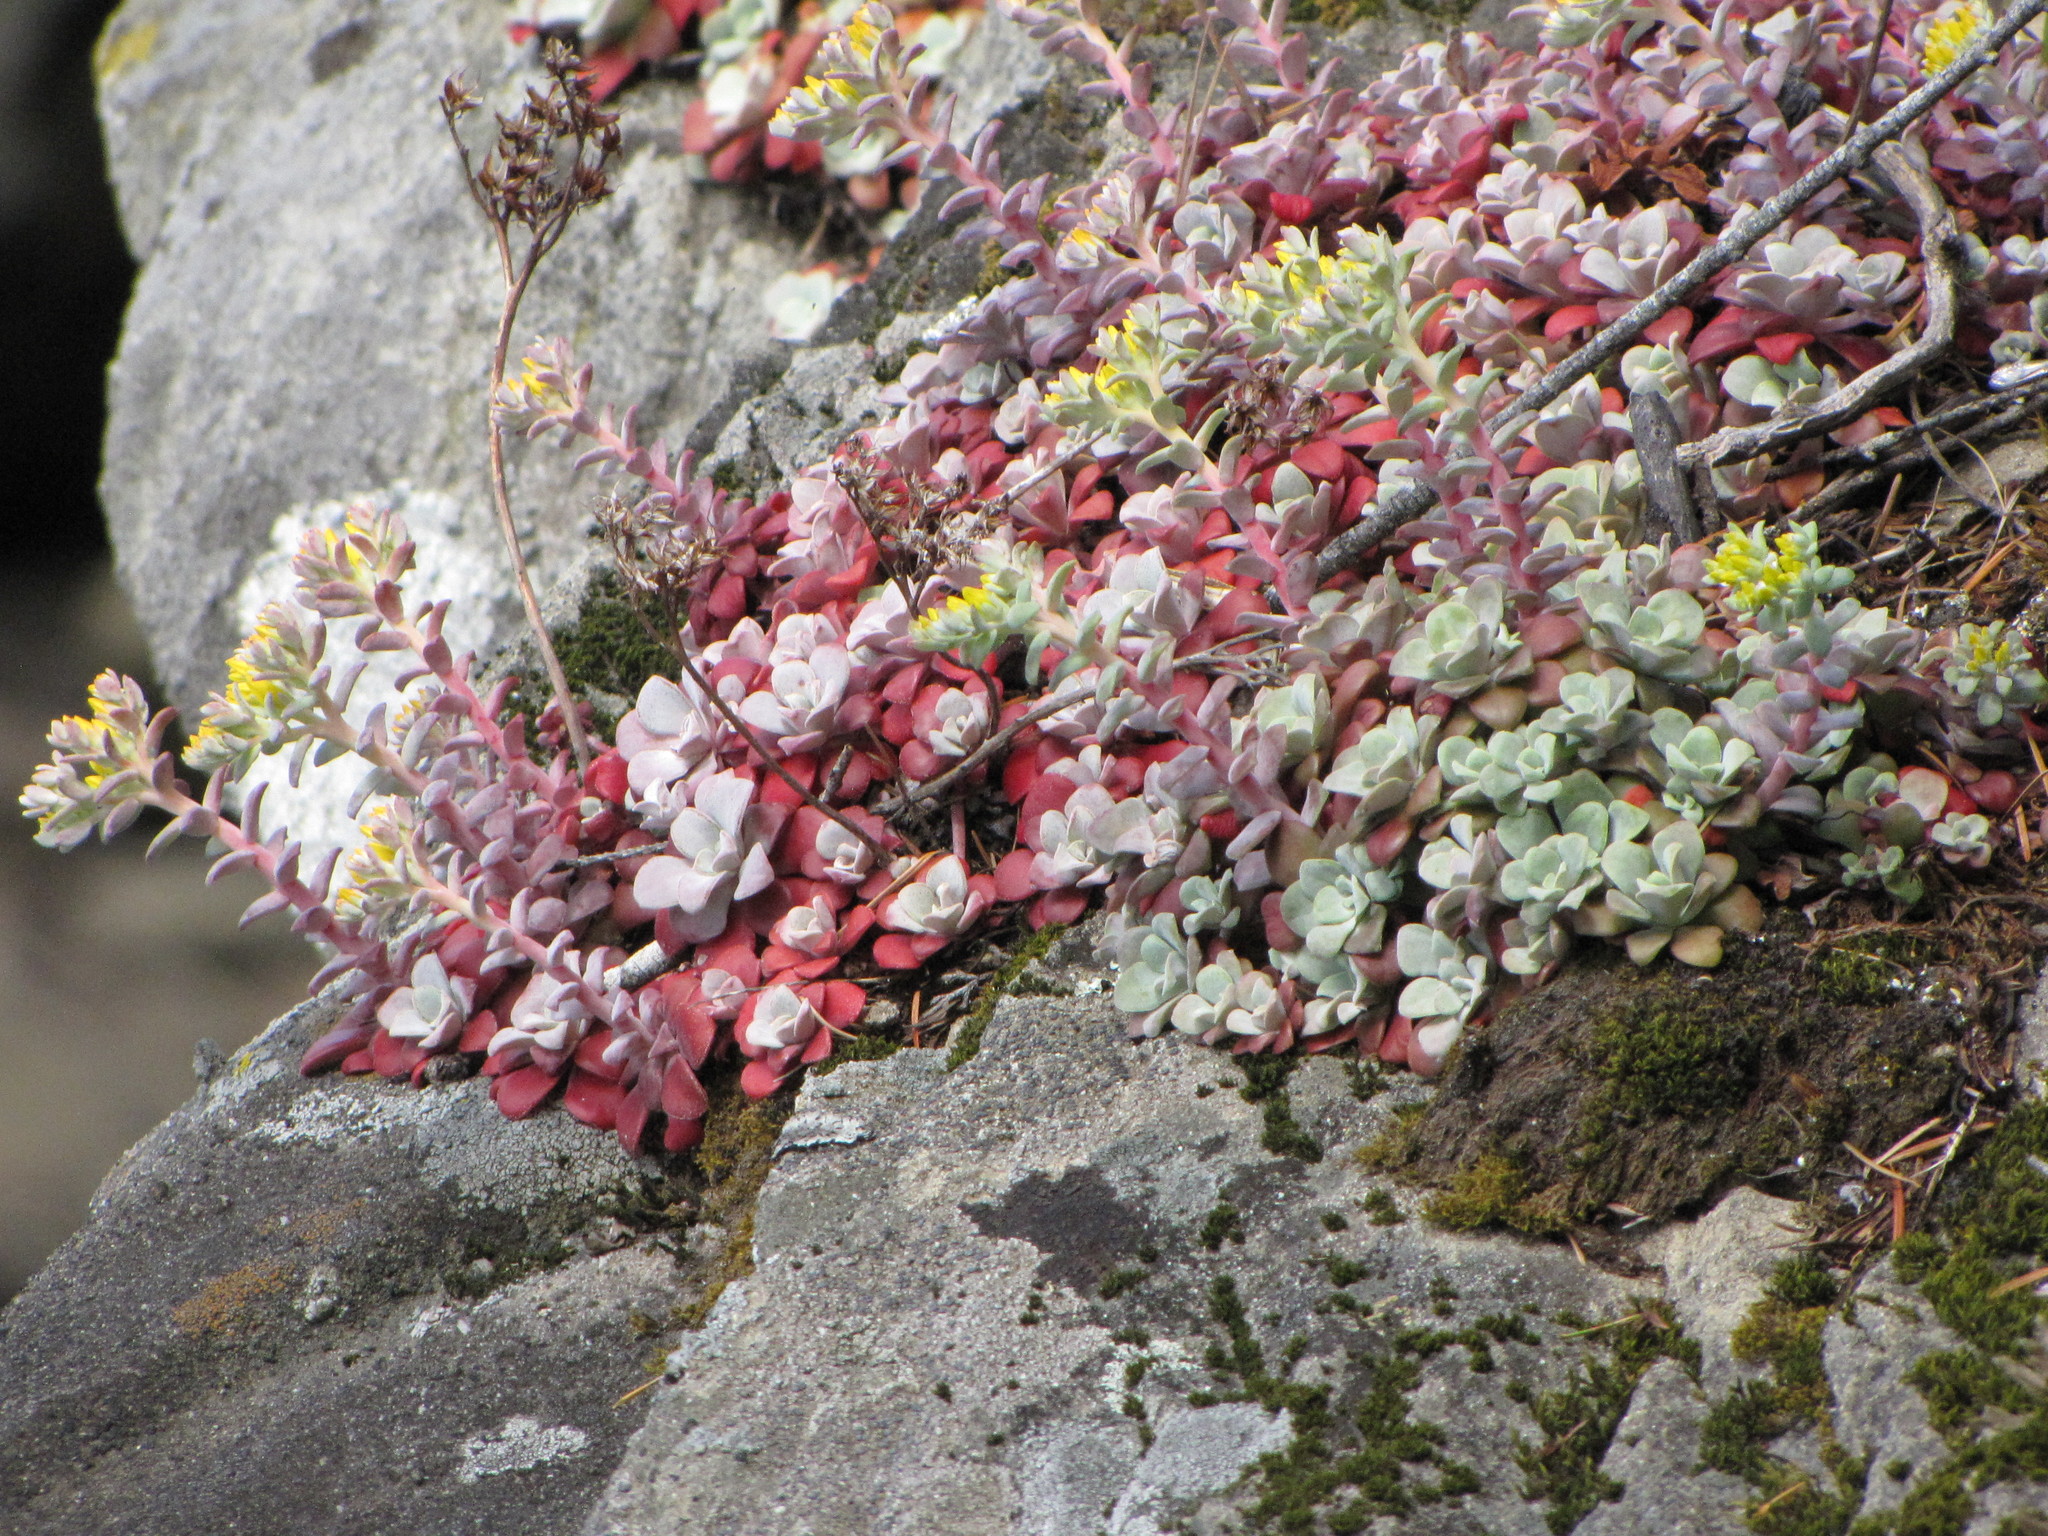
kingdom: Plantae
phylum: Tracheophyta
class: Magnoliopsida
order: Saxifragales
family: Crassulaceae
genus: Sedum
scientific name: Sedum spathulifolium
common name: Colorado stonecrop
